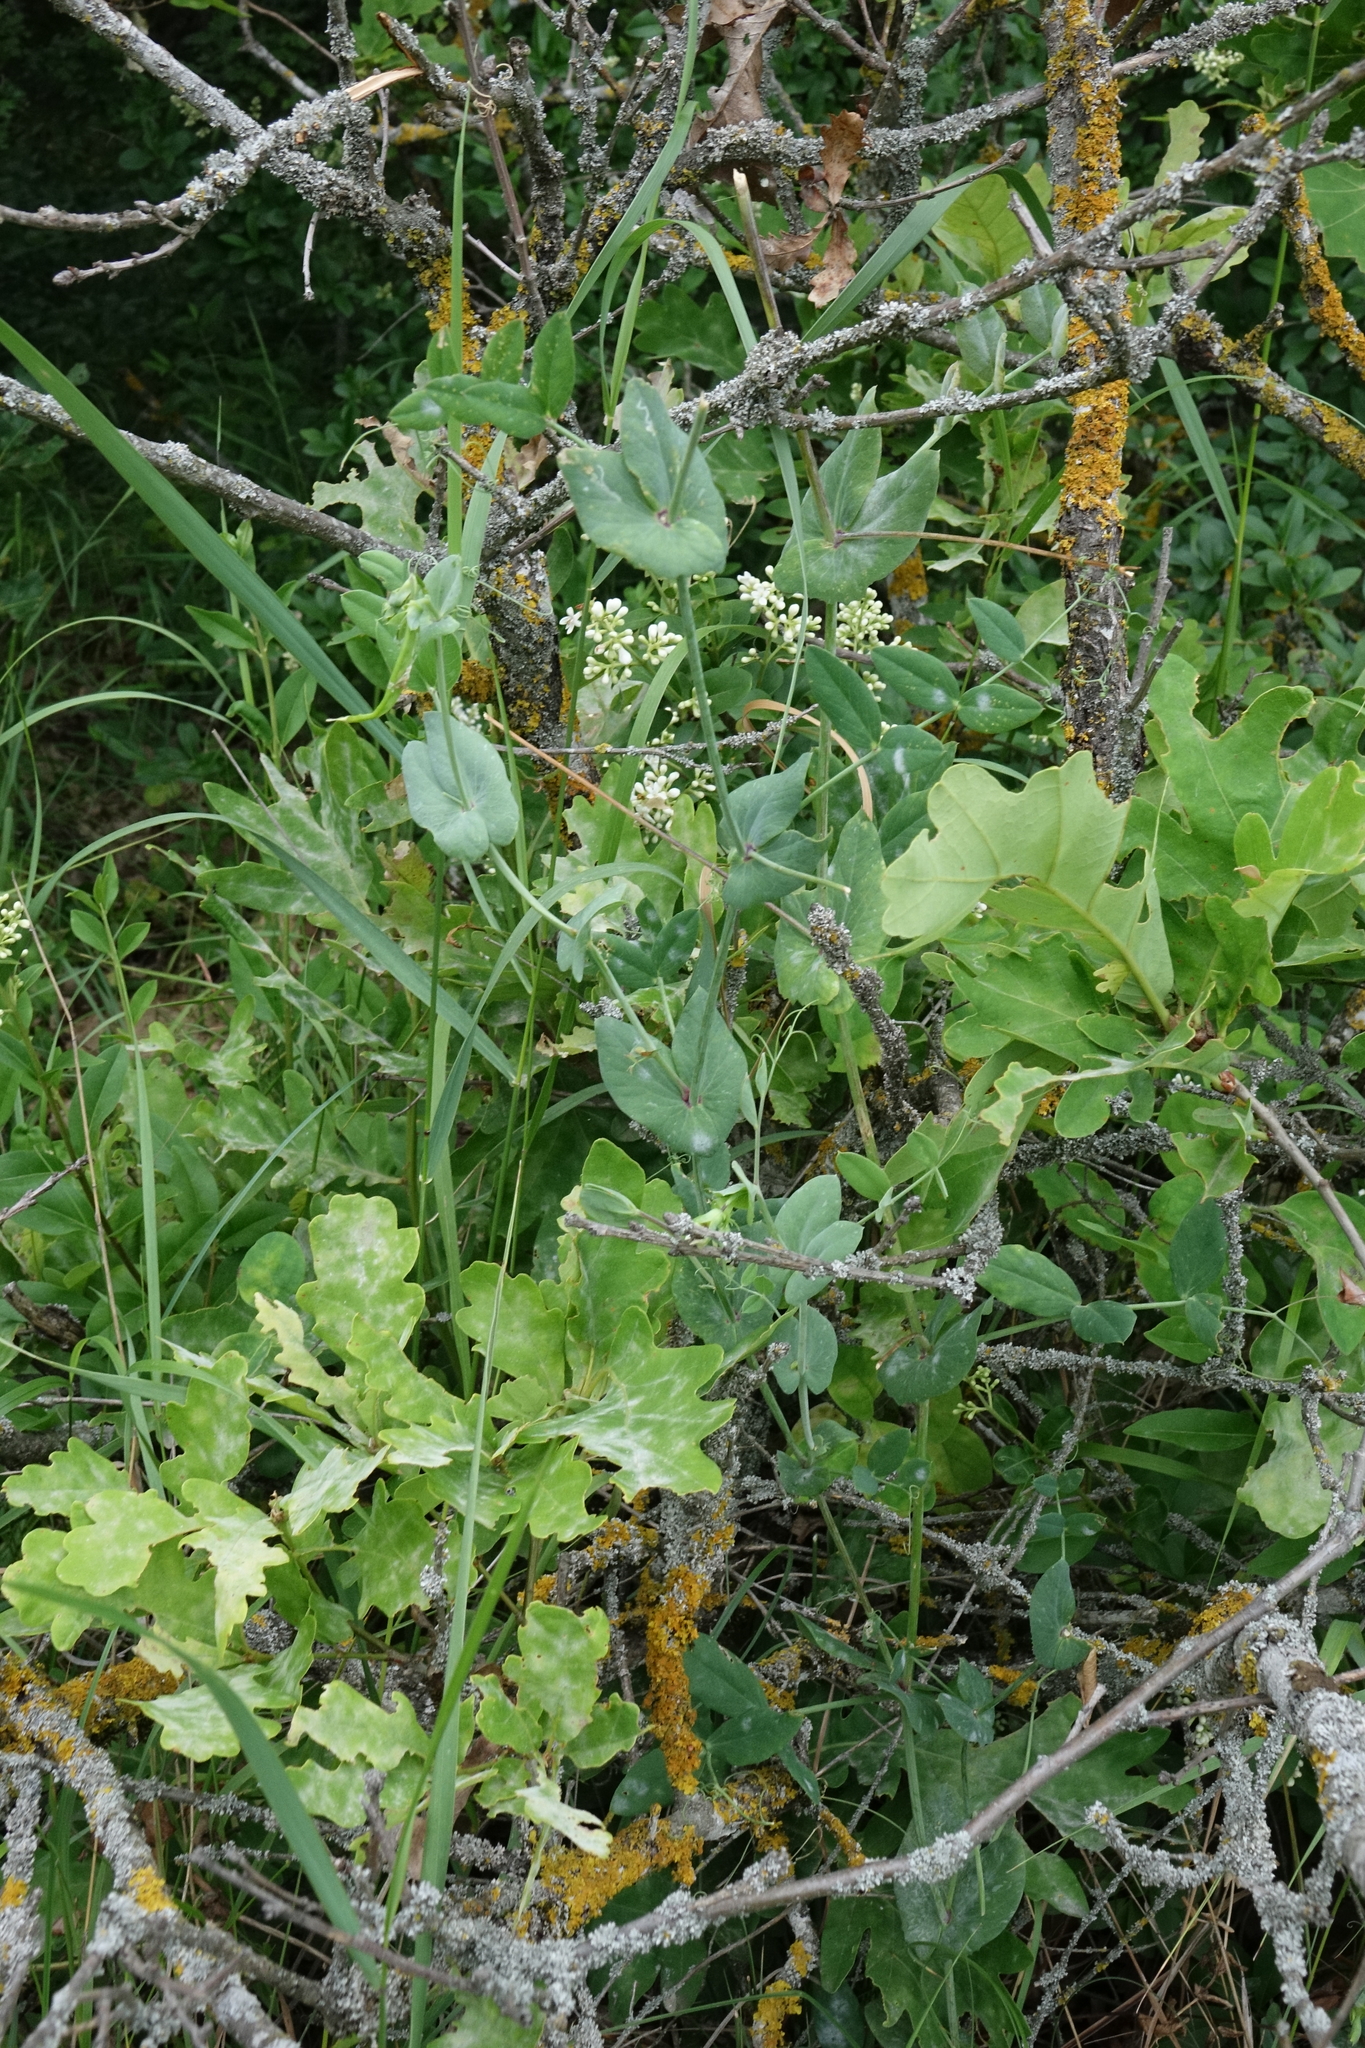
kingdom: Plantae
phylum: Tracheophyta
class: Magnoliopsida
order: Fabales
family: Fabaceae
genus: Lathyrus
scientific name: Lathyrus oleraceus
